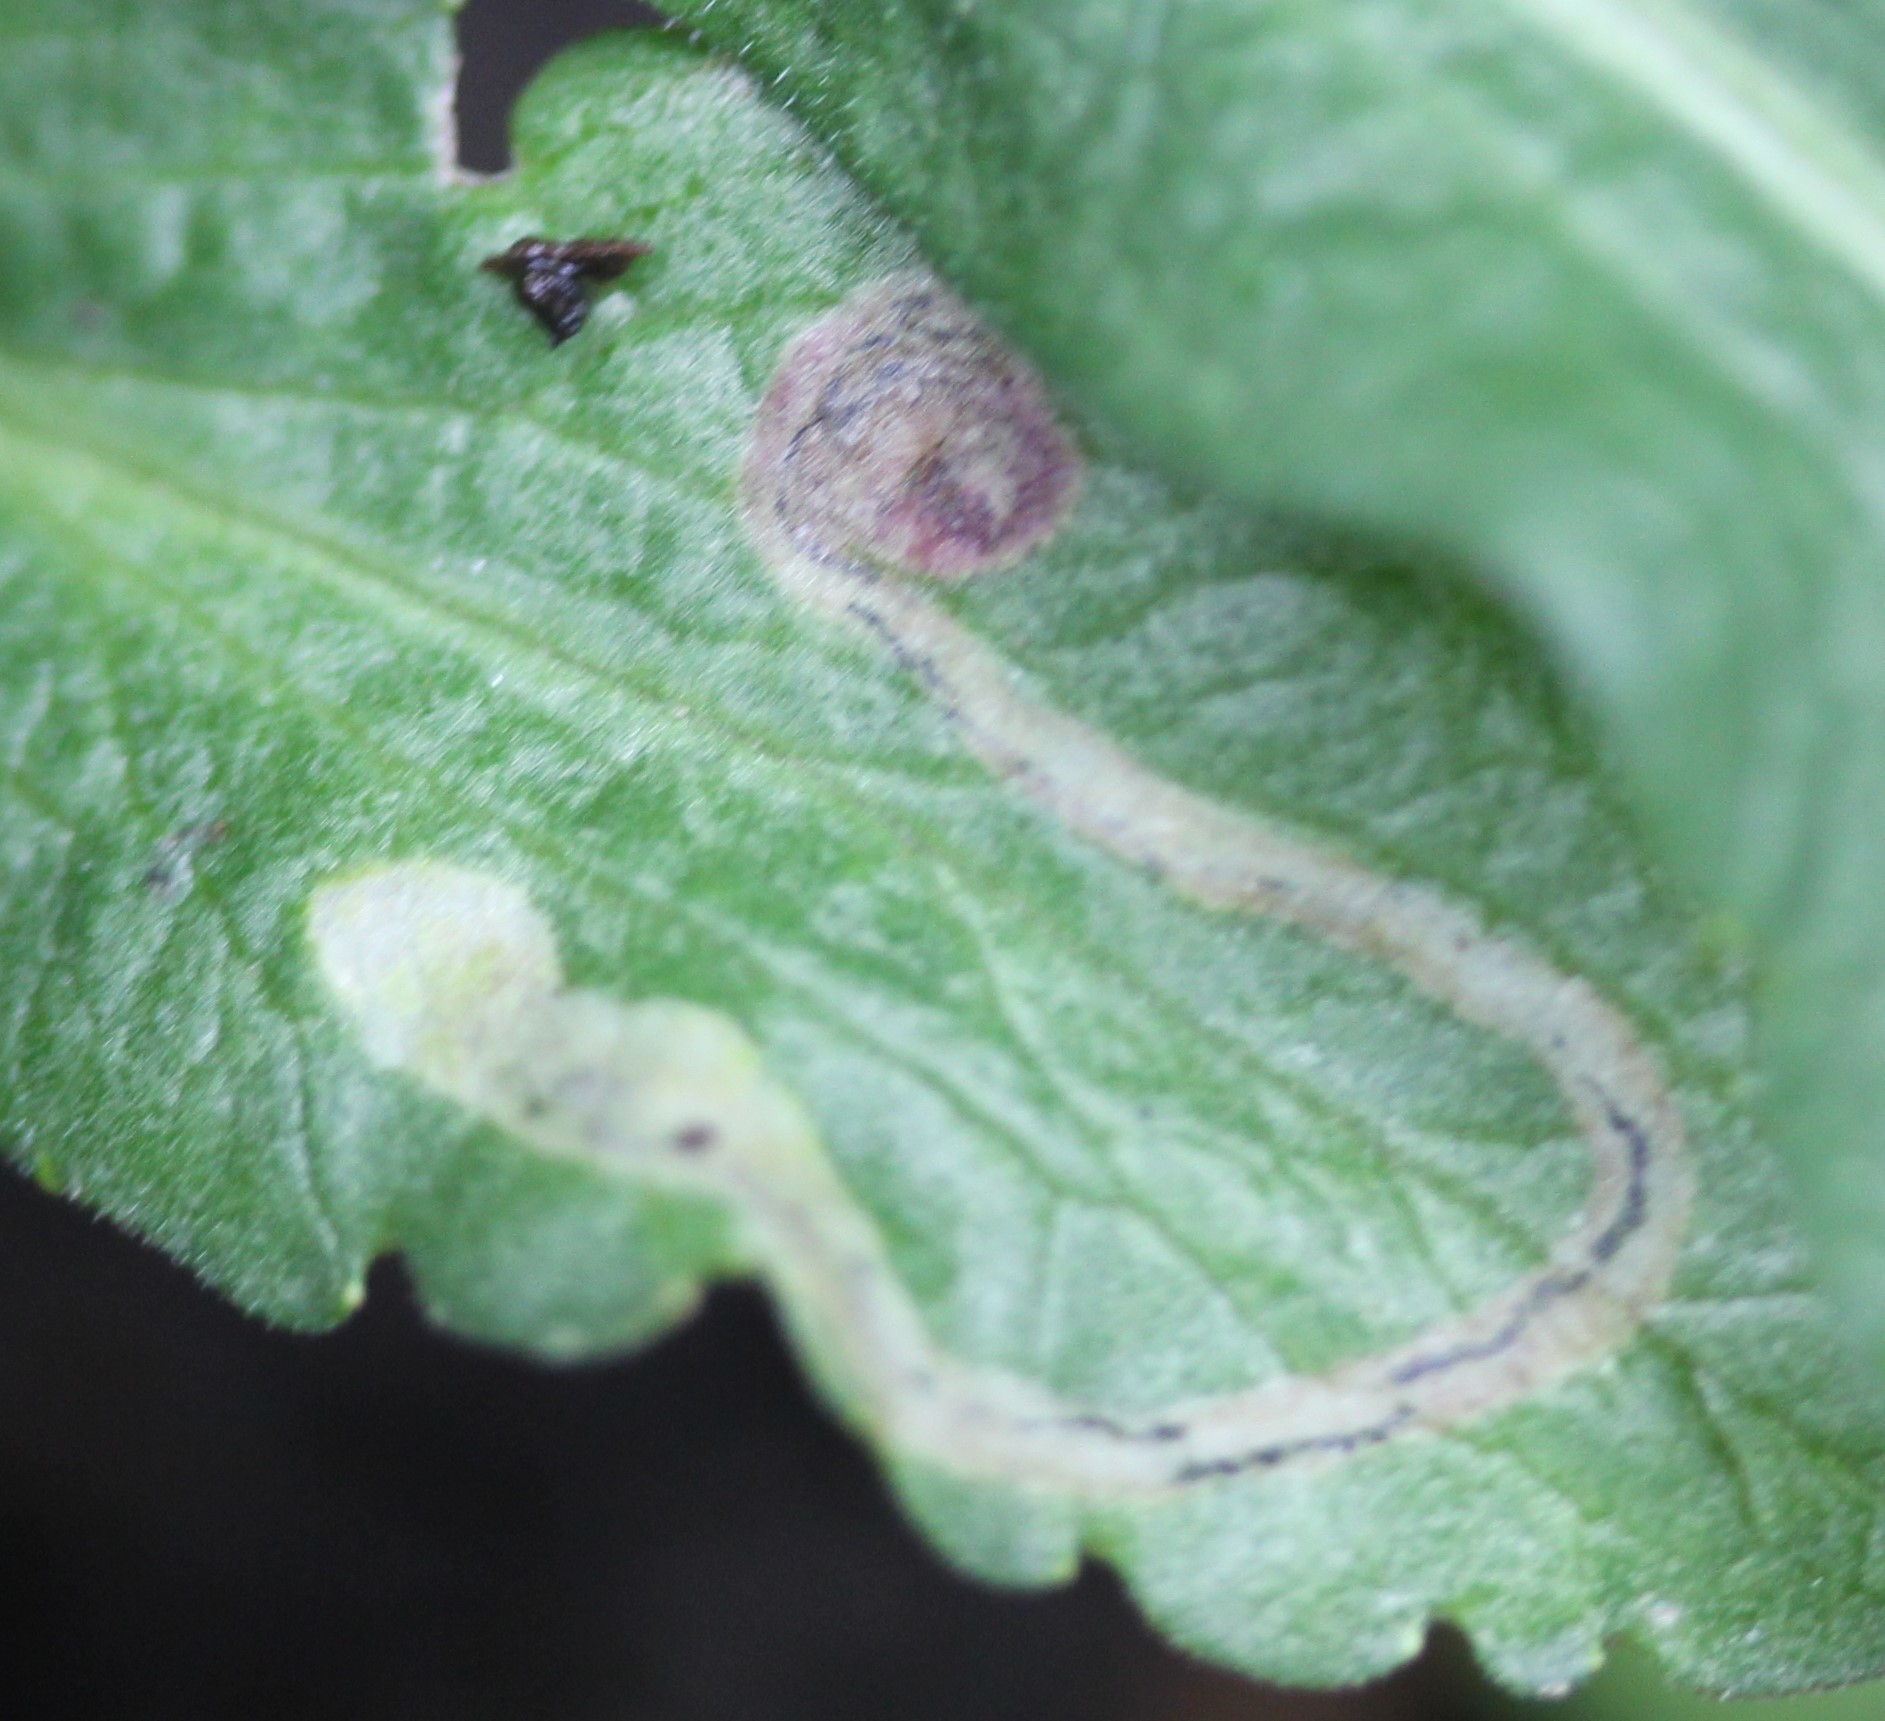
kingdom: Animalia
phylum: Arthropoda
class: Insecta
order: Diptera
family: Agromyzidae
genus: Liriomyza
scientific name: Liriomyza eupatorii
